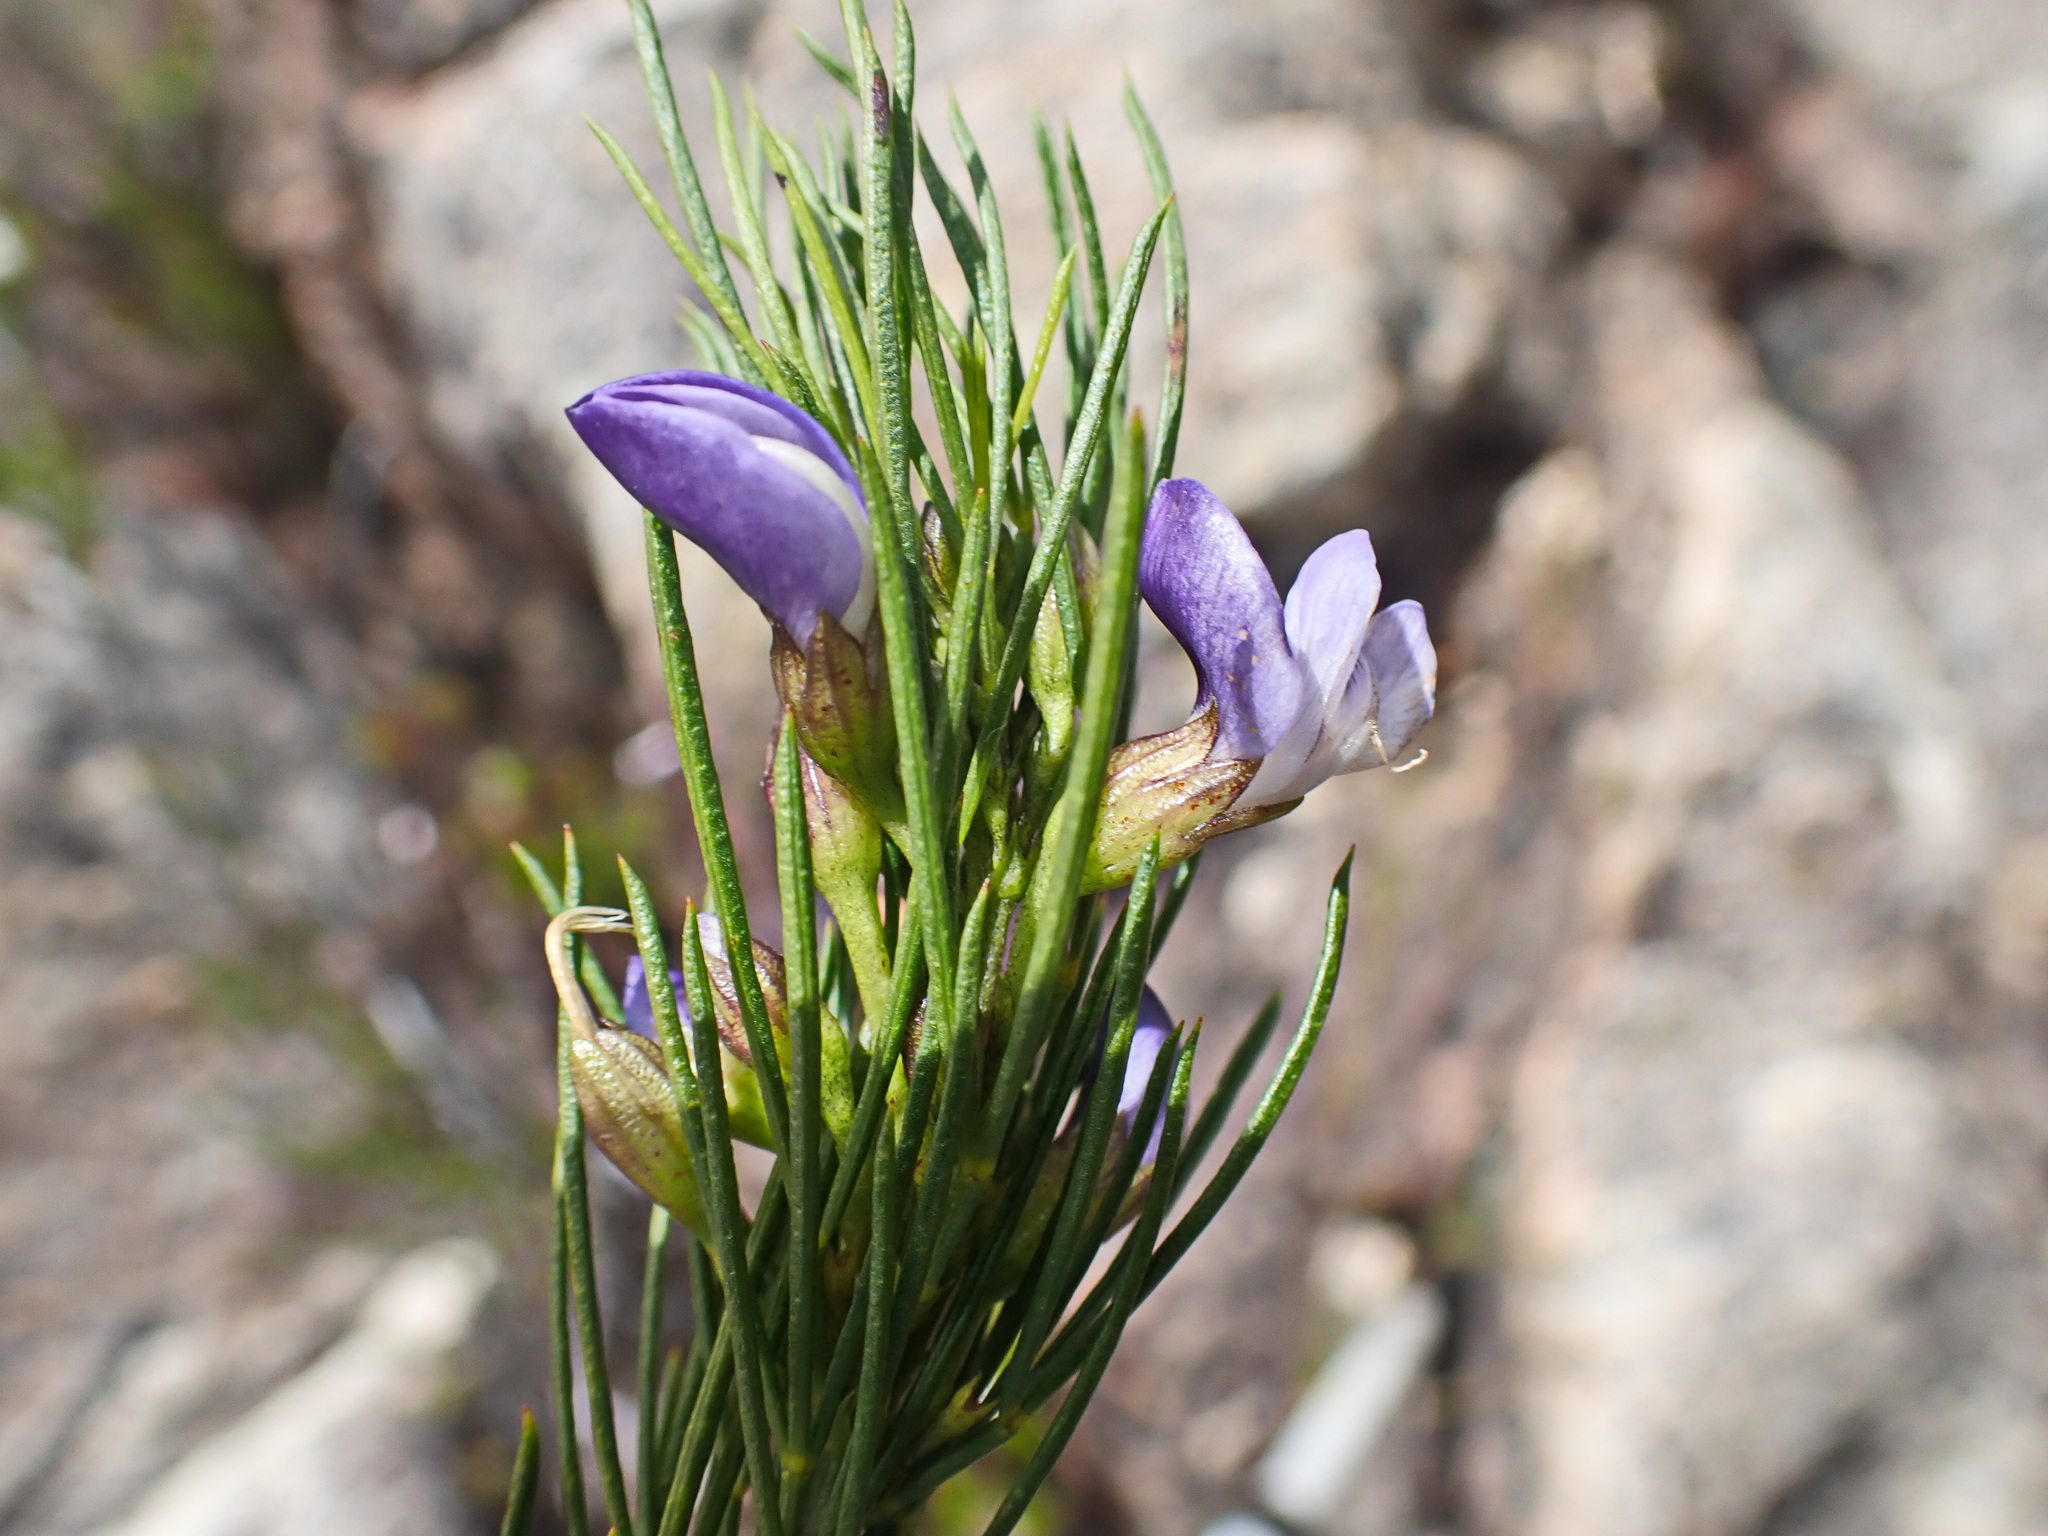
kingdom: Plantae
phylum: Tracheophyta
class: Magnoliopsida
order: Fabales
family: Fabaceae
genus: Psoralea
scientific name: Psoralea sordida
